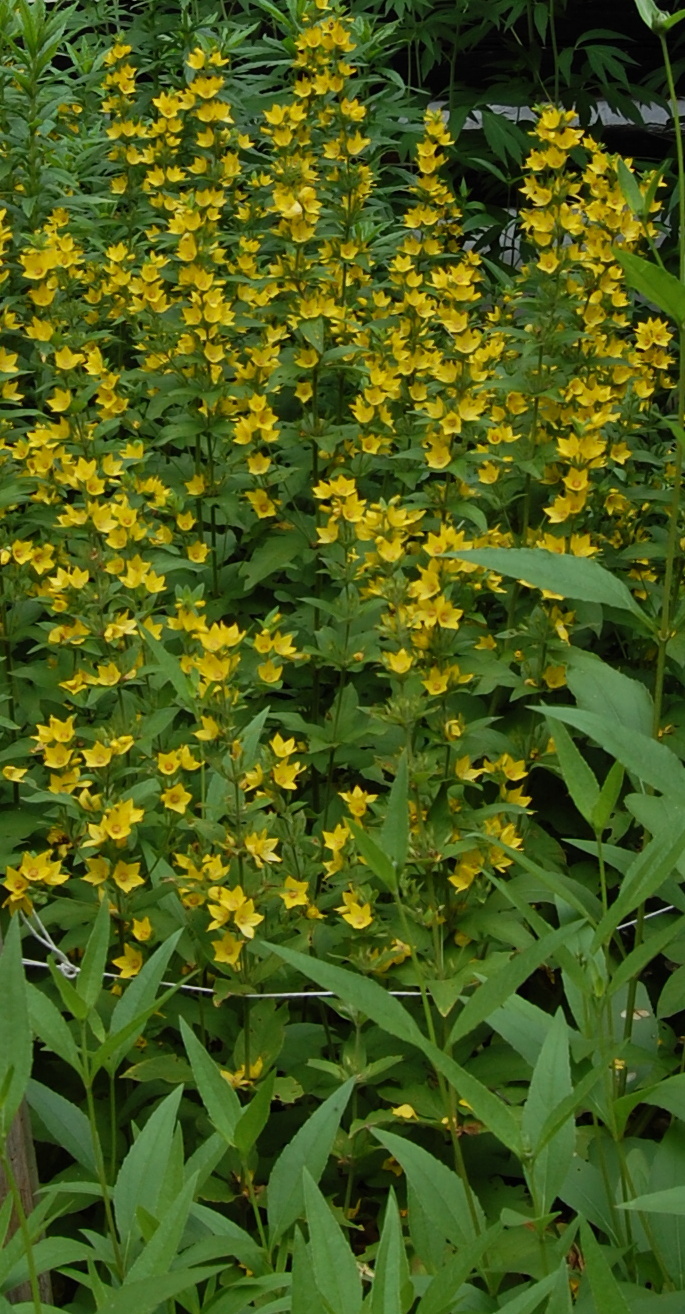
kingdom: Plantae
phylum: Tracheophyta
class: Magnoliopsida
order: Ericales
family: Primulaceae
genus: Lysimachia
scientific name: Lysimachia punctata
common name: Dotted loosestrife
